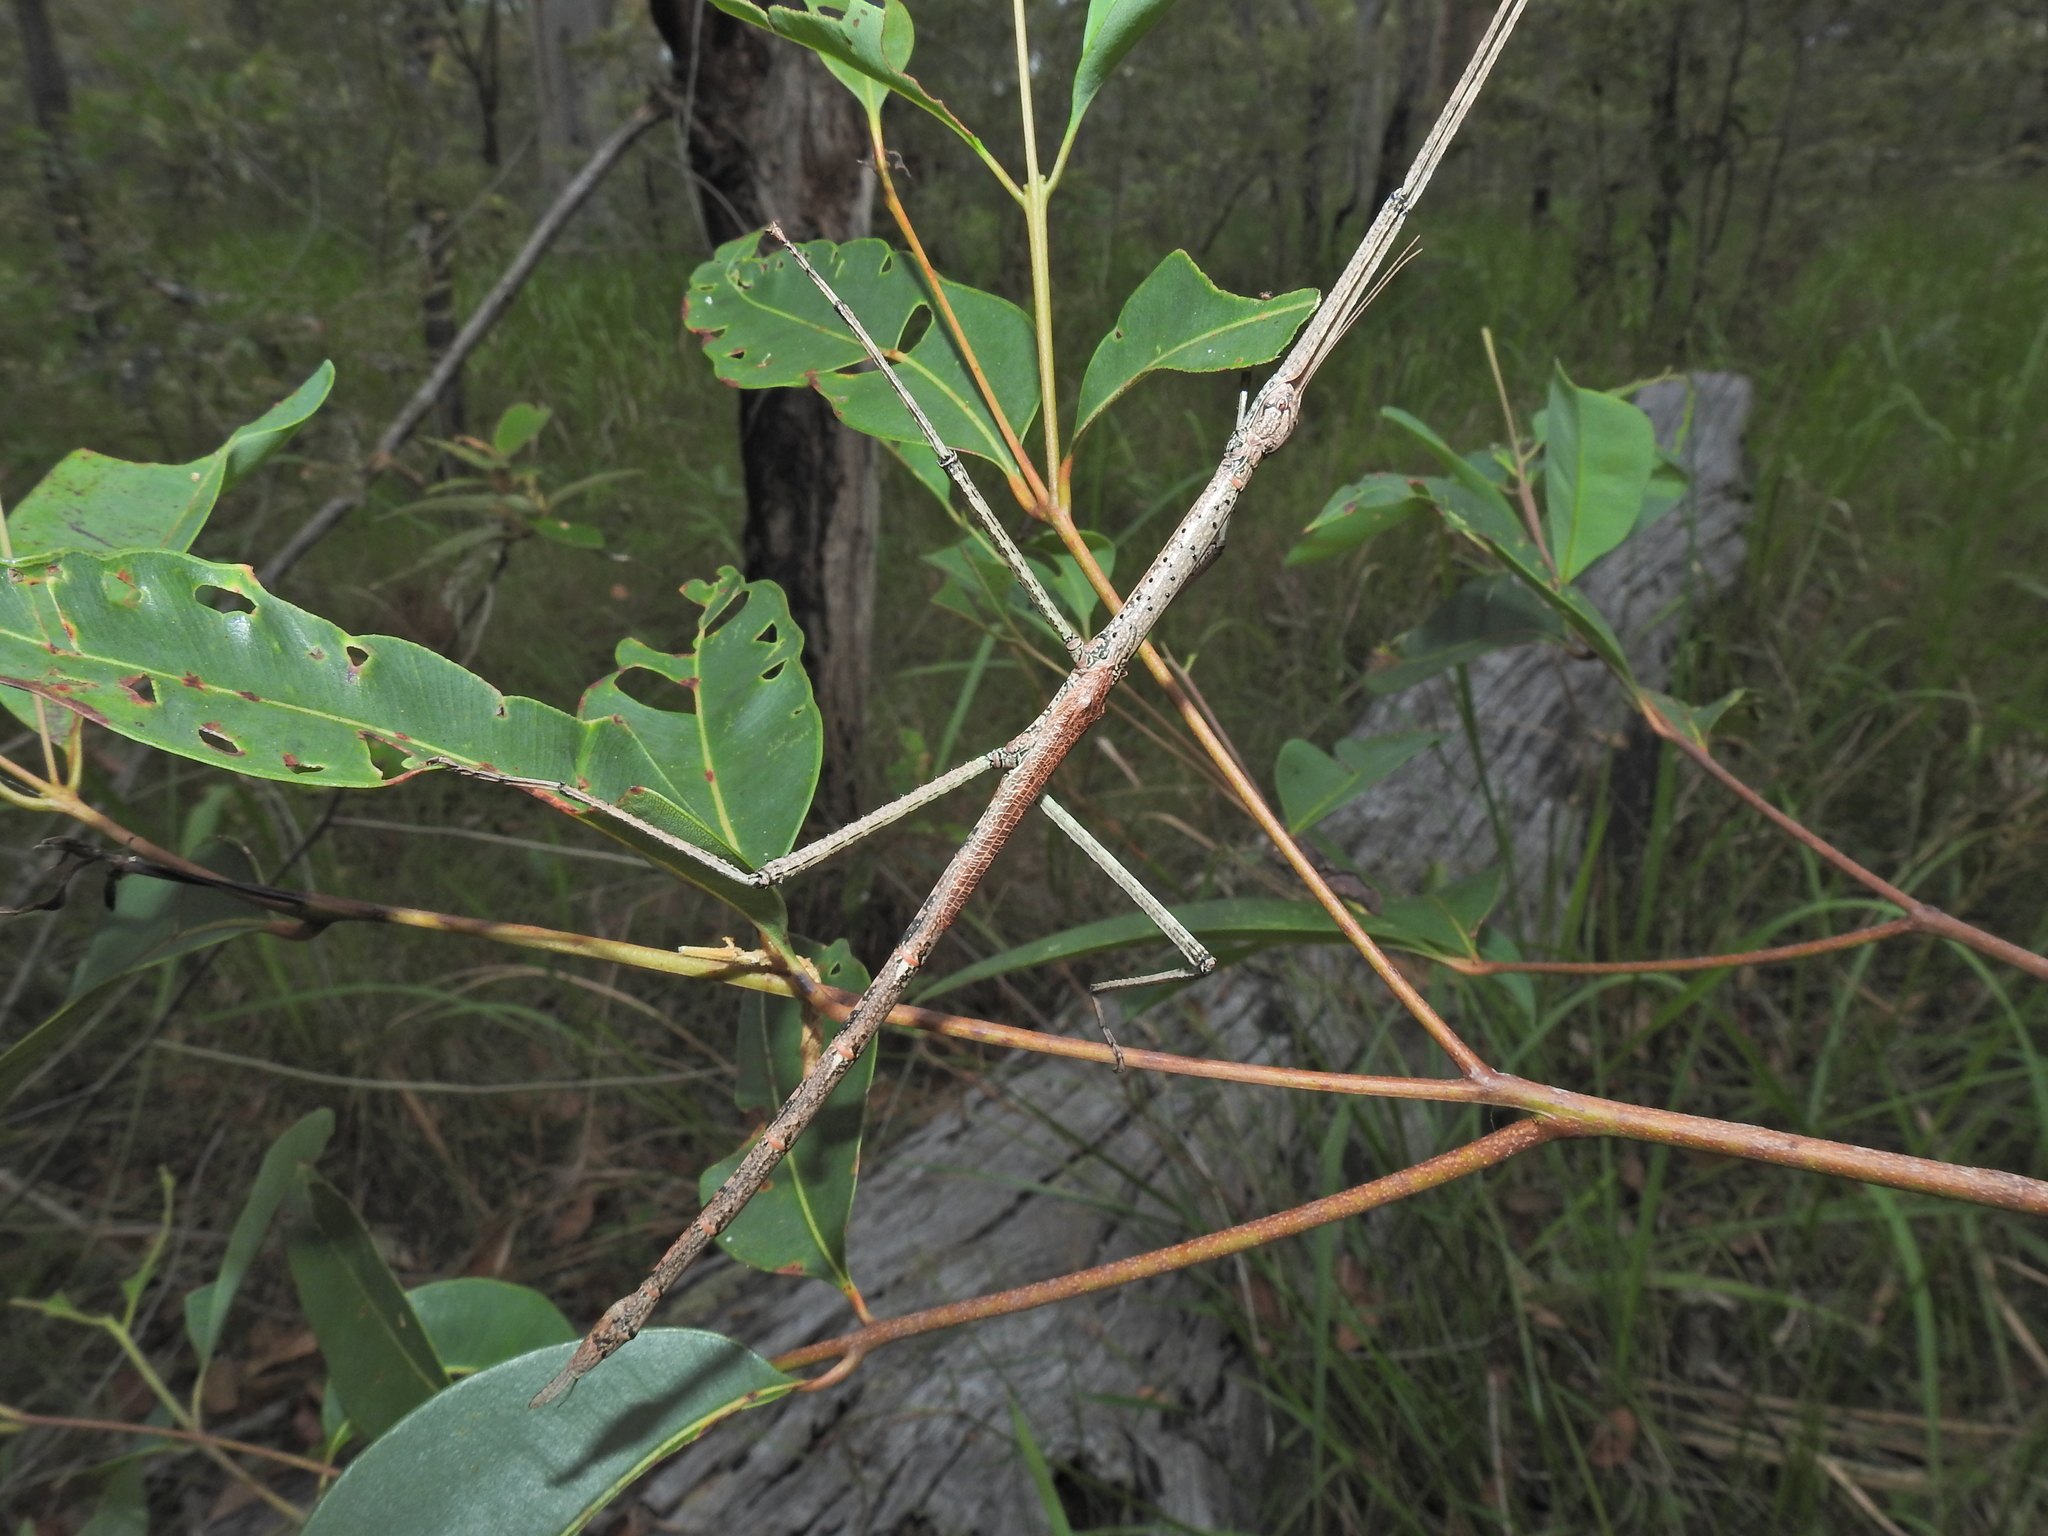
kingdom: Animalia
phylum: Arthropoda
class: Insecta
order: Phasmida
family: Phasmatidae
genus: Anchiale
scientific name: Anchiale austrotessulata
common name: Tessellated stick-insect
